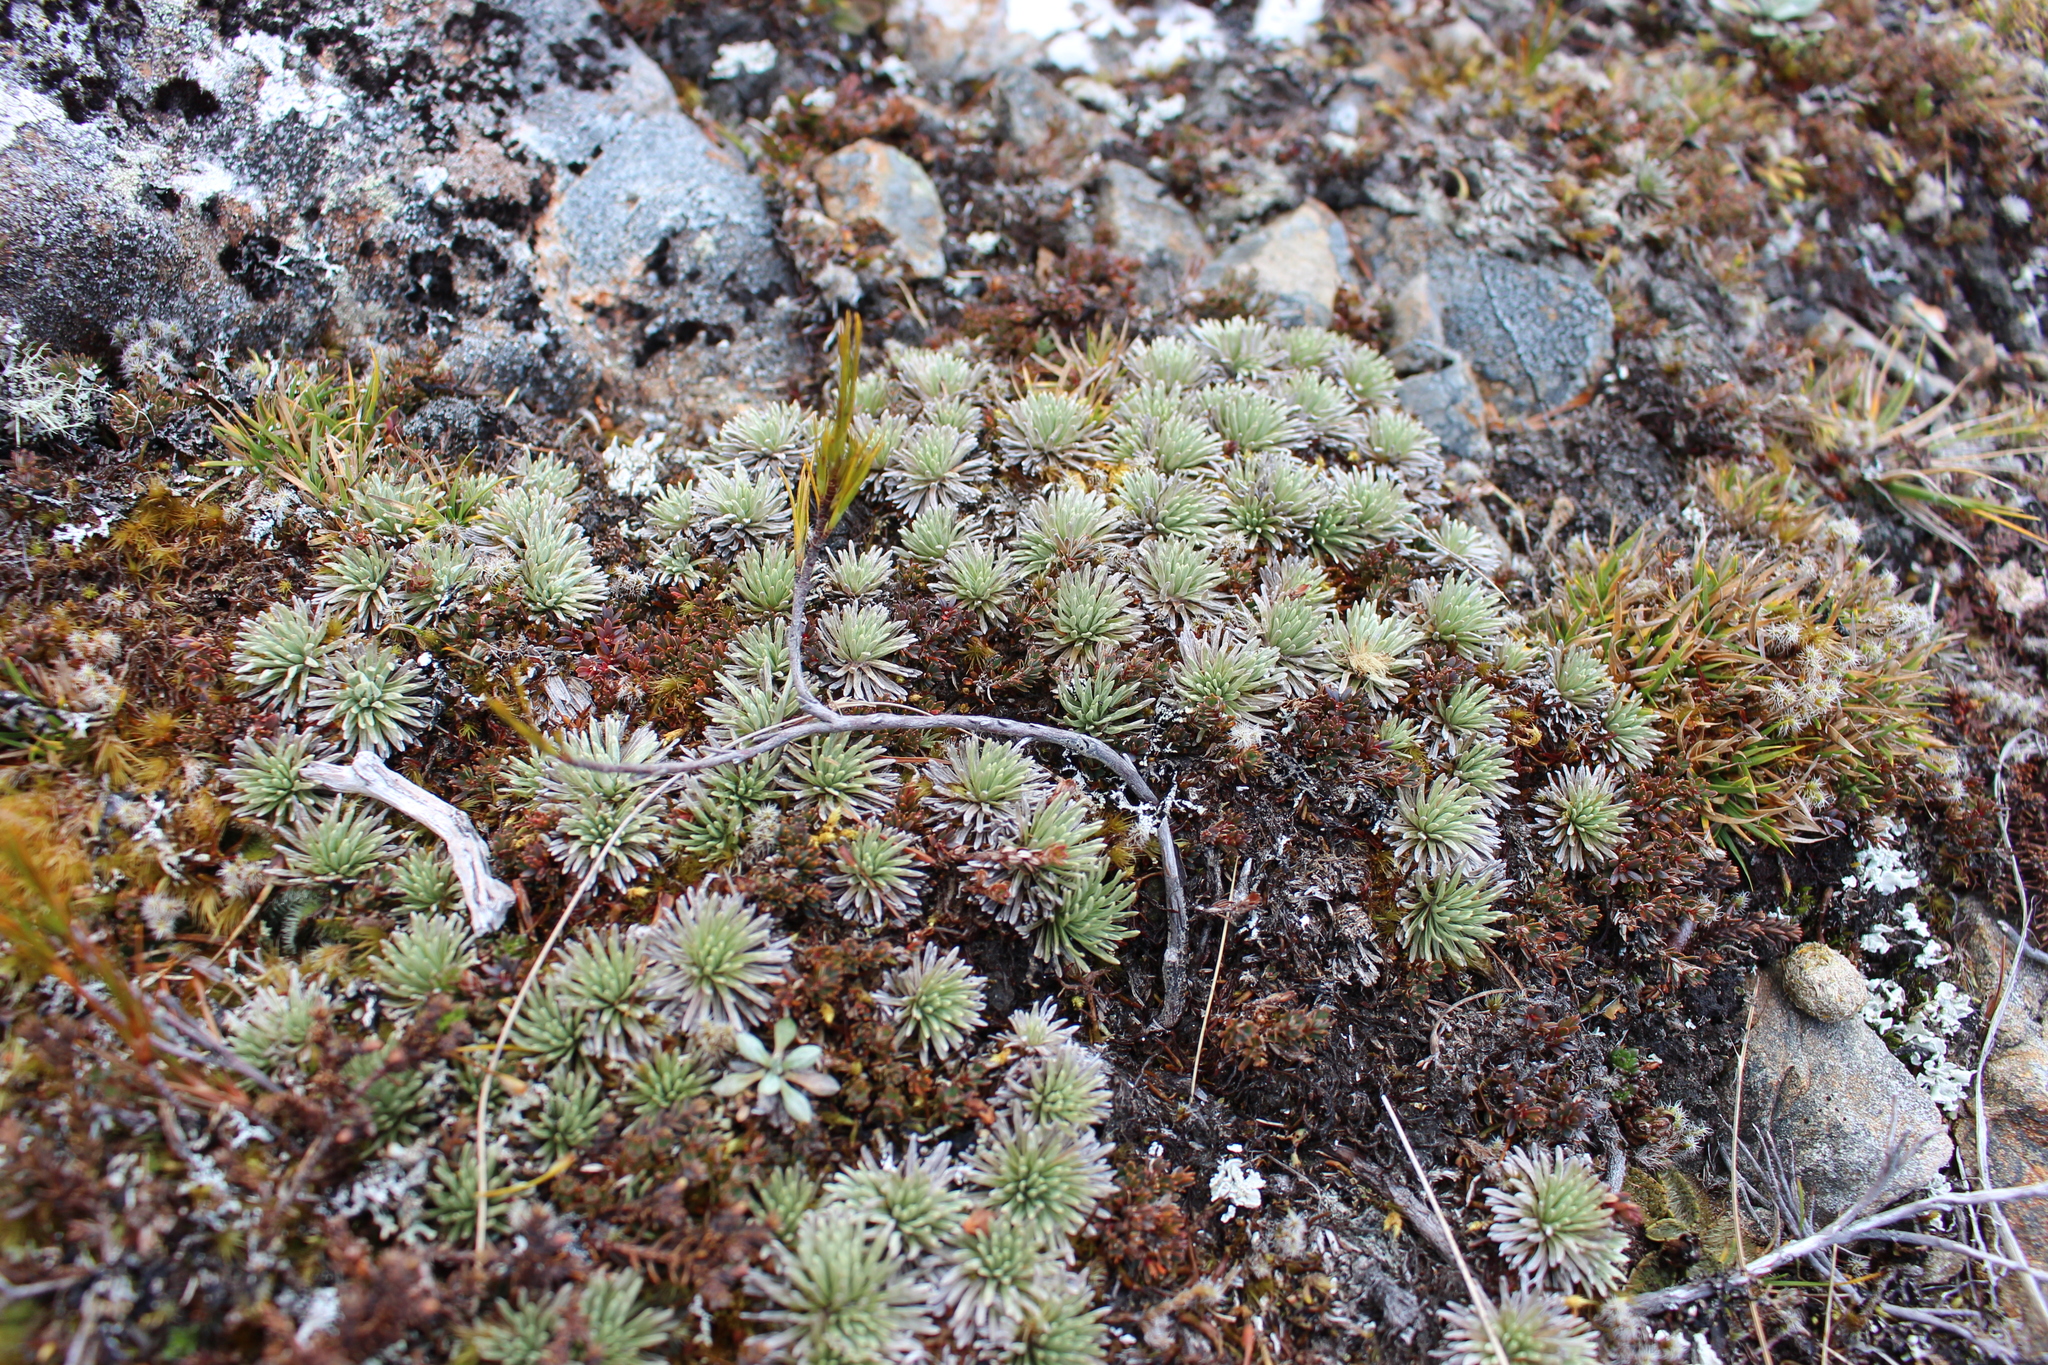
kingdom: Plantae
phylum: Tracheophyta
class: Magnoliopsida
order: Asterales
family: Asteraceae
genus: Celmisia
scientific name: Celmisia sessiliflora
